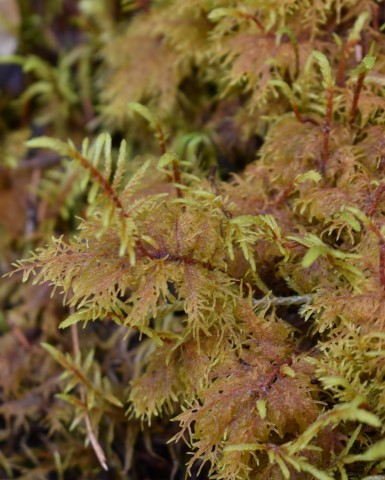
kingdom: Plantae
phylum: Bryophyta
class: Bryopsida
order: Hypnales
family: Hylocomiaceae
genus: Hylocomium
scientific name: Hylocomium splendens
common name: Stairstep moss
